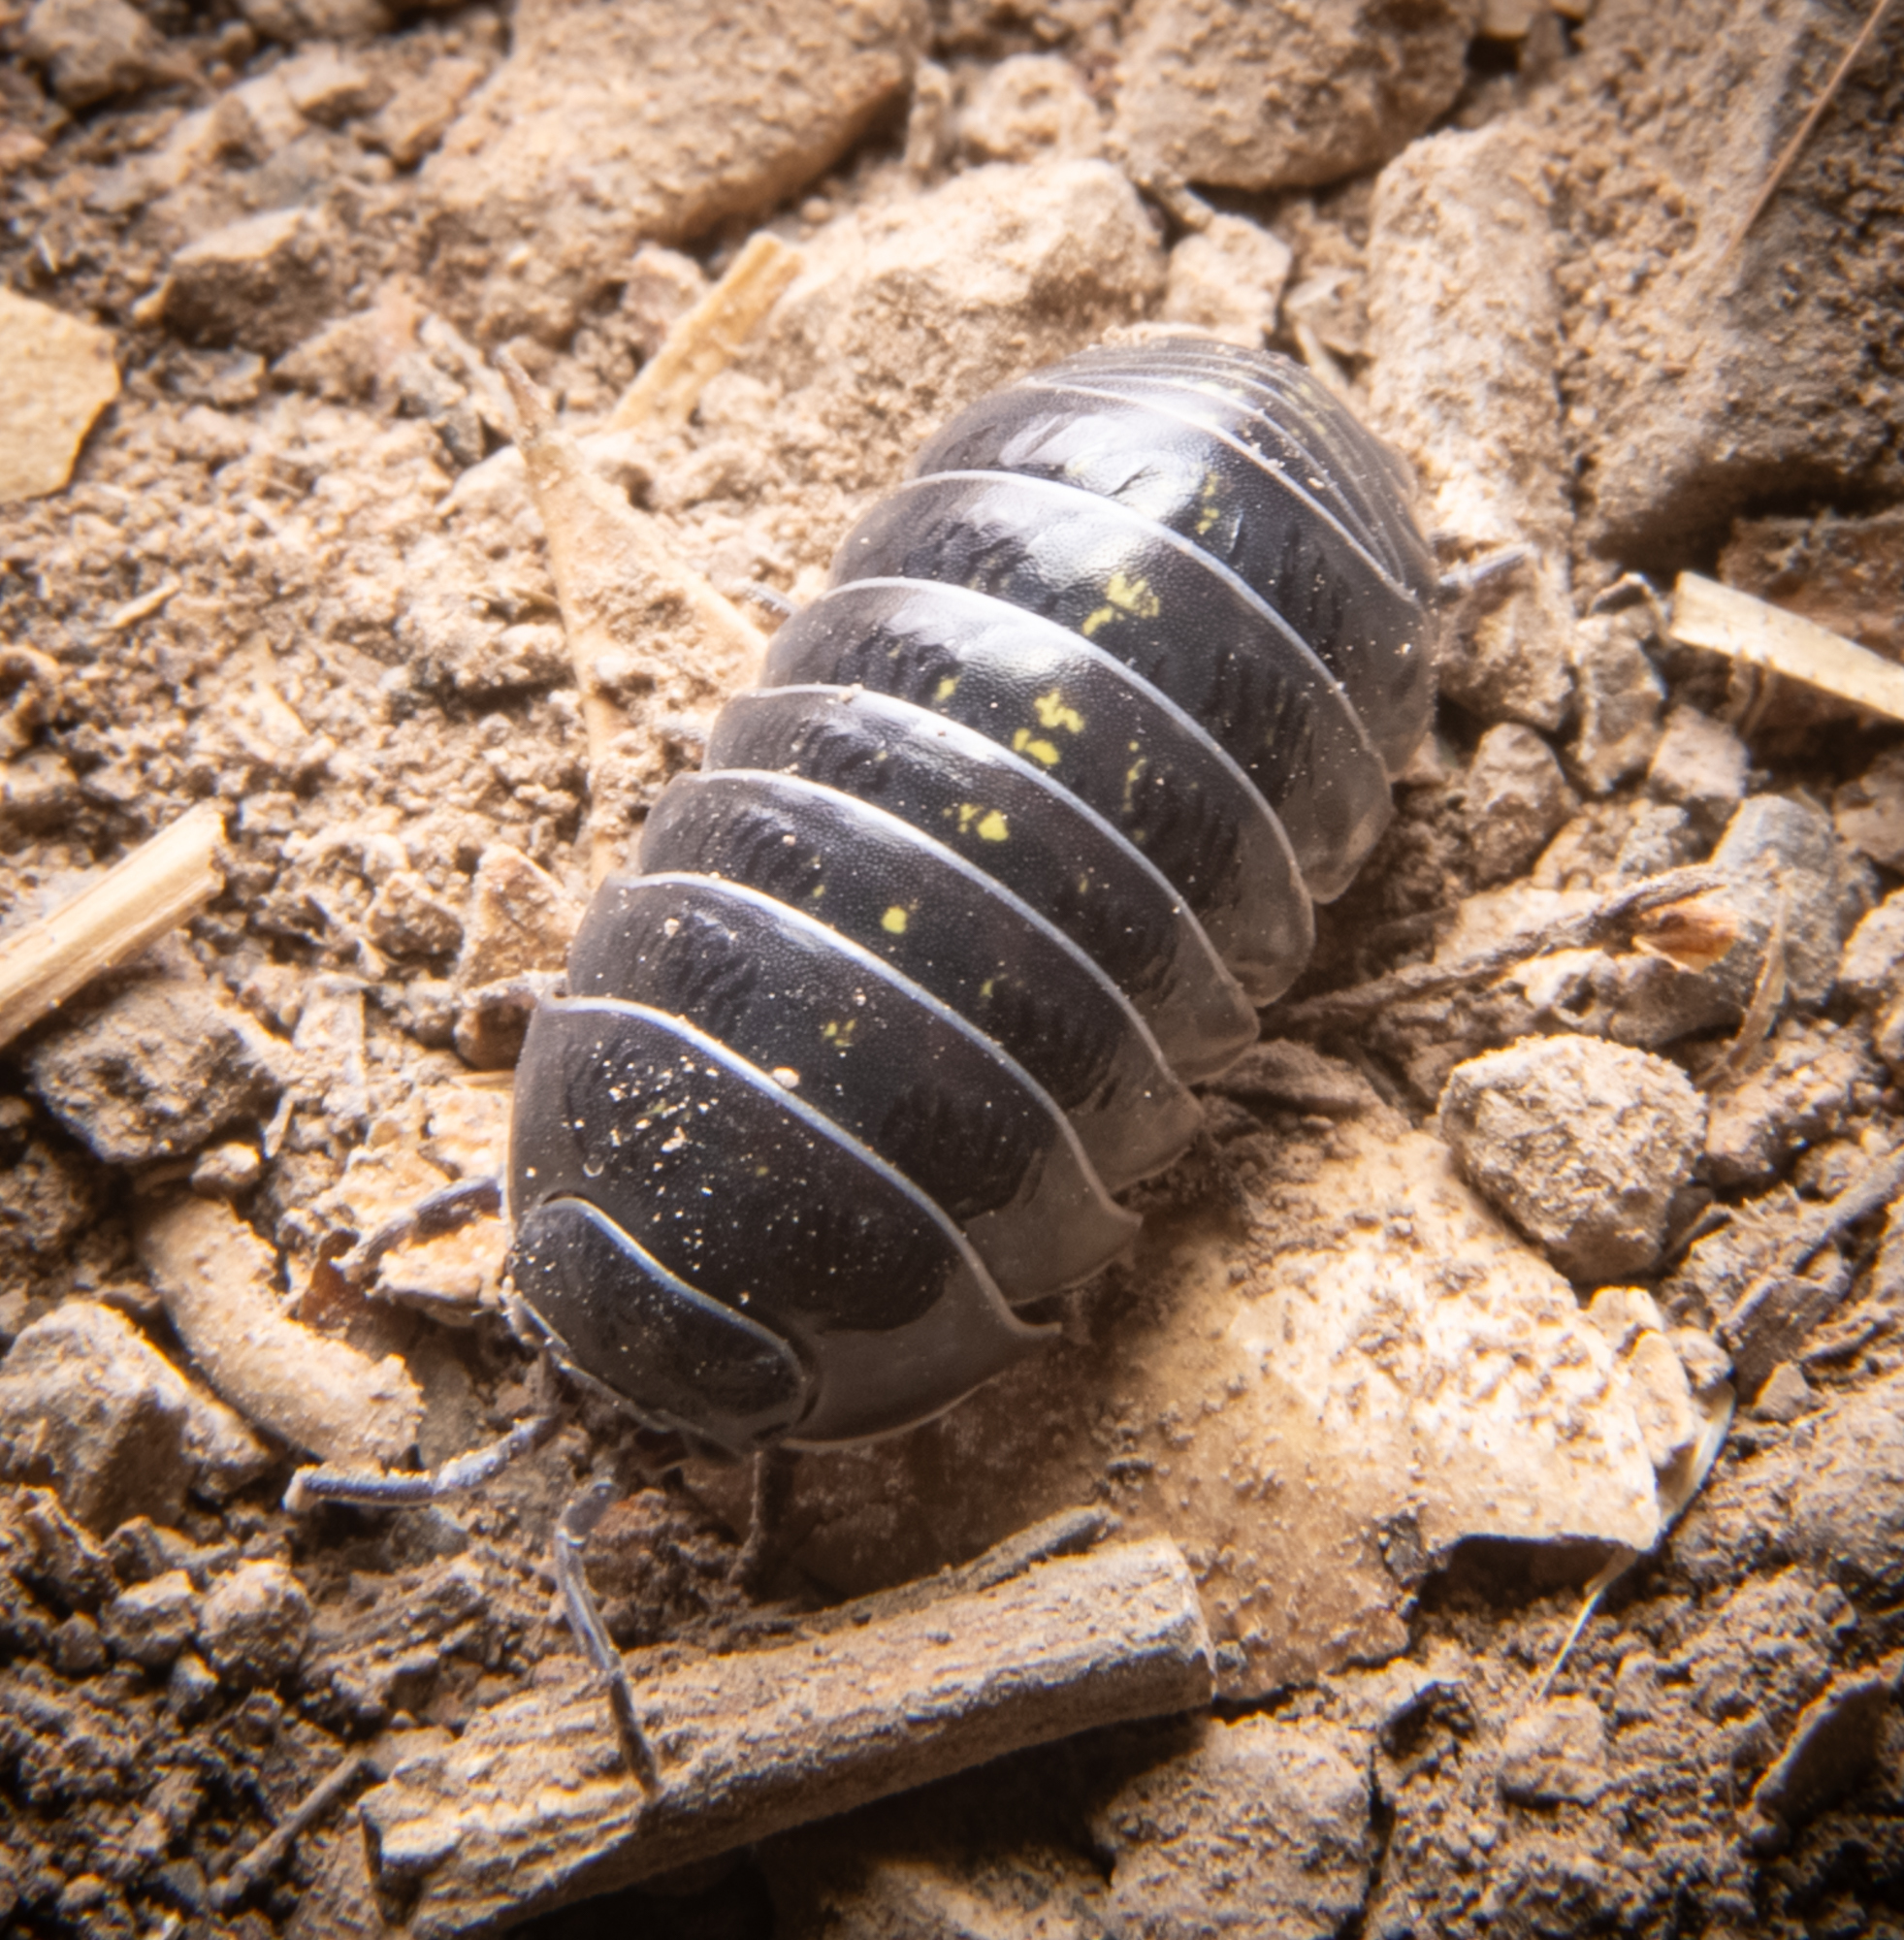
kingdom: Animalia
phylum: Arthropoda
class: Malacostraca
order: Isopoda
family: Armadillidiidae
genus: Armadillidium
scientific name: Armadillidium vulgare
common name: Common pill woodlouse
